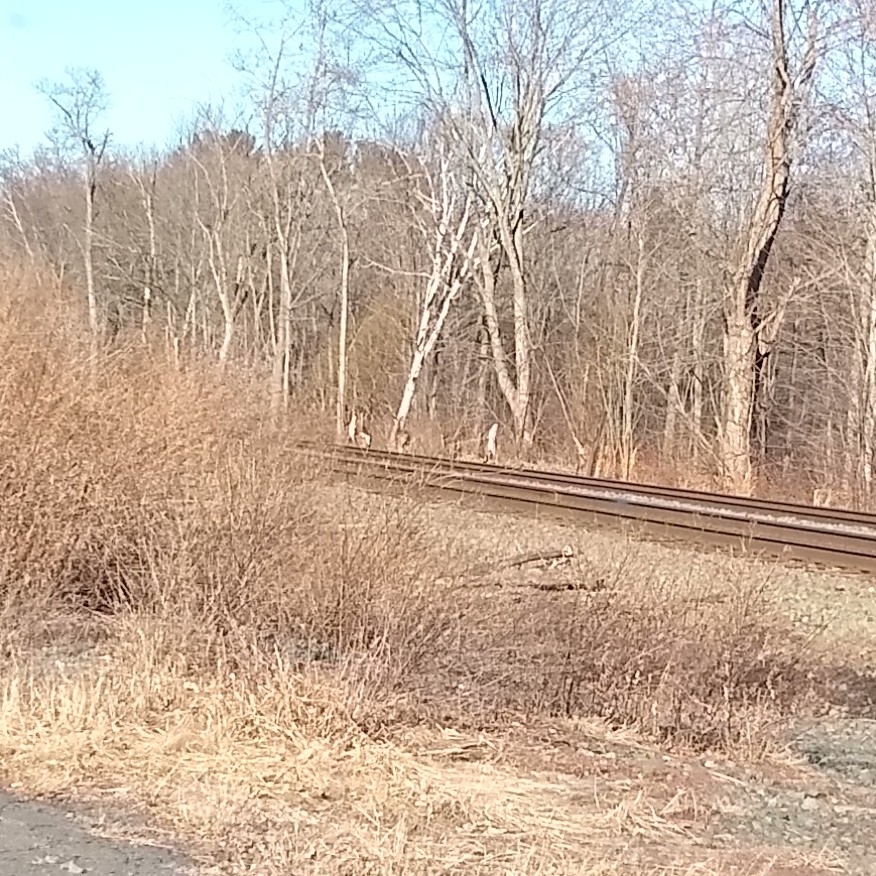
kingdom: Animalia
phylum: Chordata
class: Mammalia
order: Artiodactyla
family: Cervidae
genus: Odocoileus
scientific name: Odocoileus virginianus
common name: White-tailed deer
